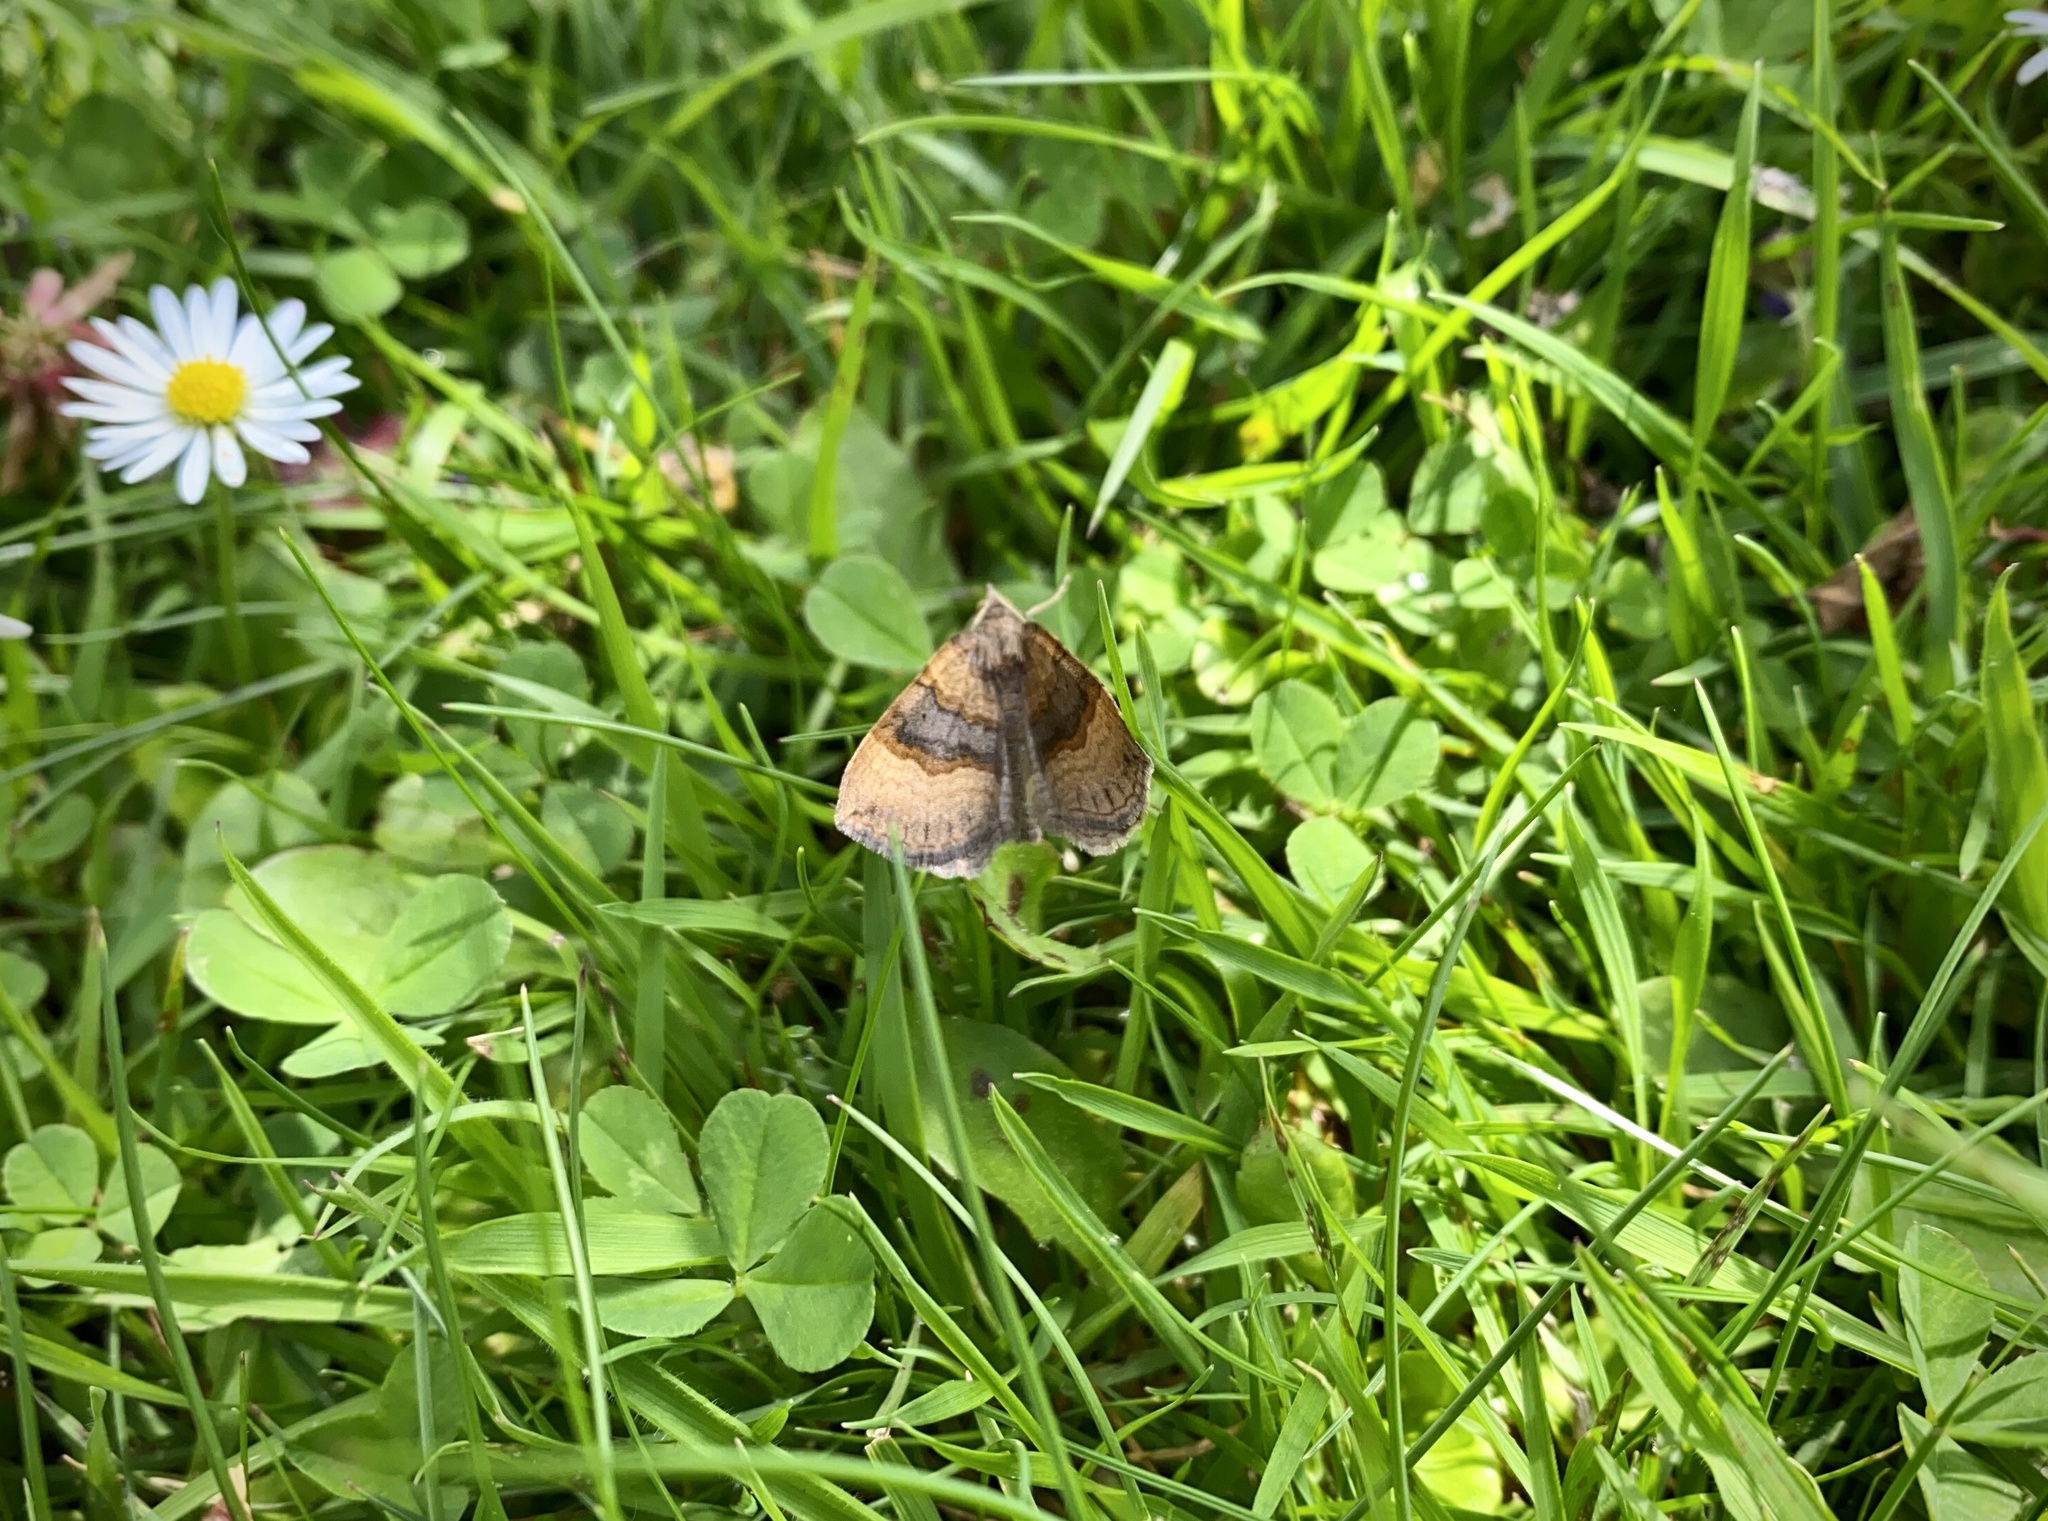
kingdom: Animalia
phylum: Arthropoda
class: Insecta
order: Lepidoptera
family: Geometridae
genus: Scotopteryx
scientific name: Scotopteryx chenopodiata
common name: Shaded broad-bar
